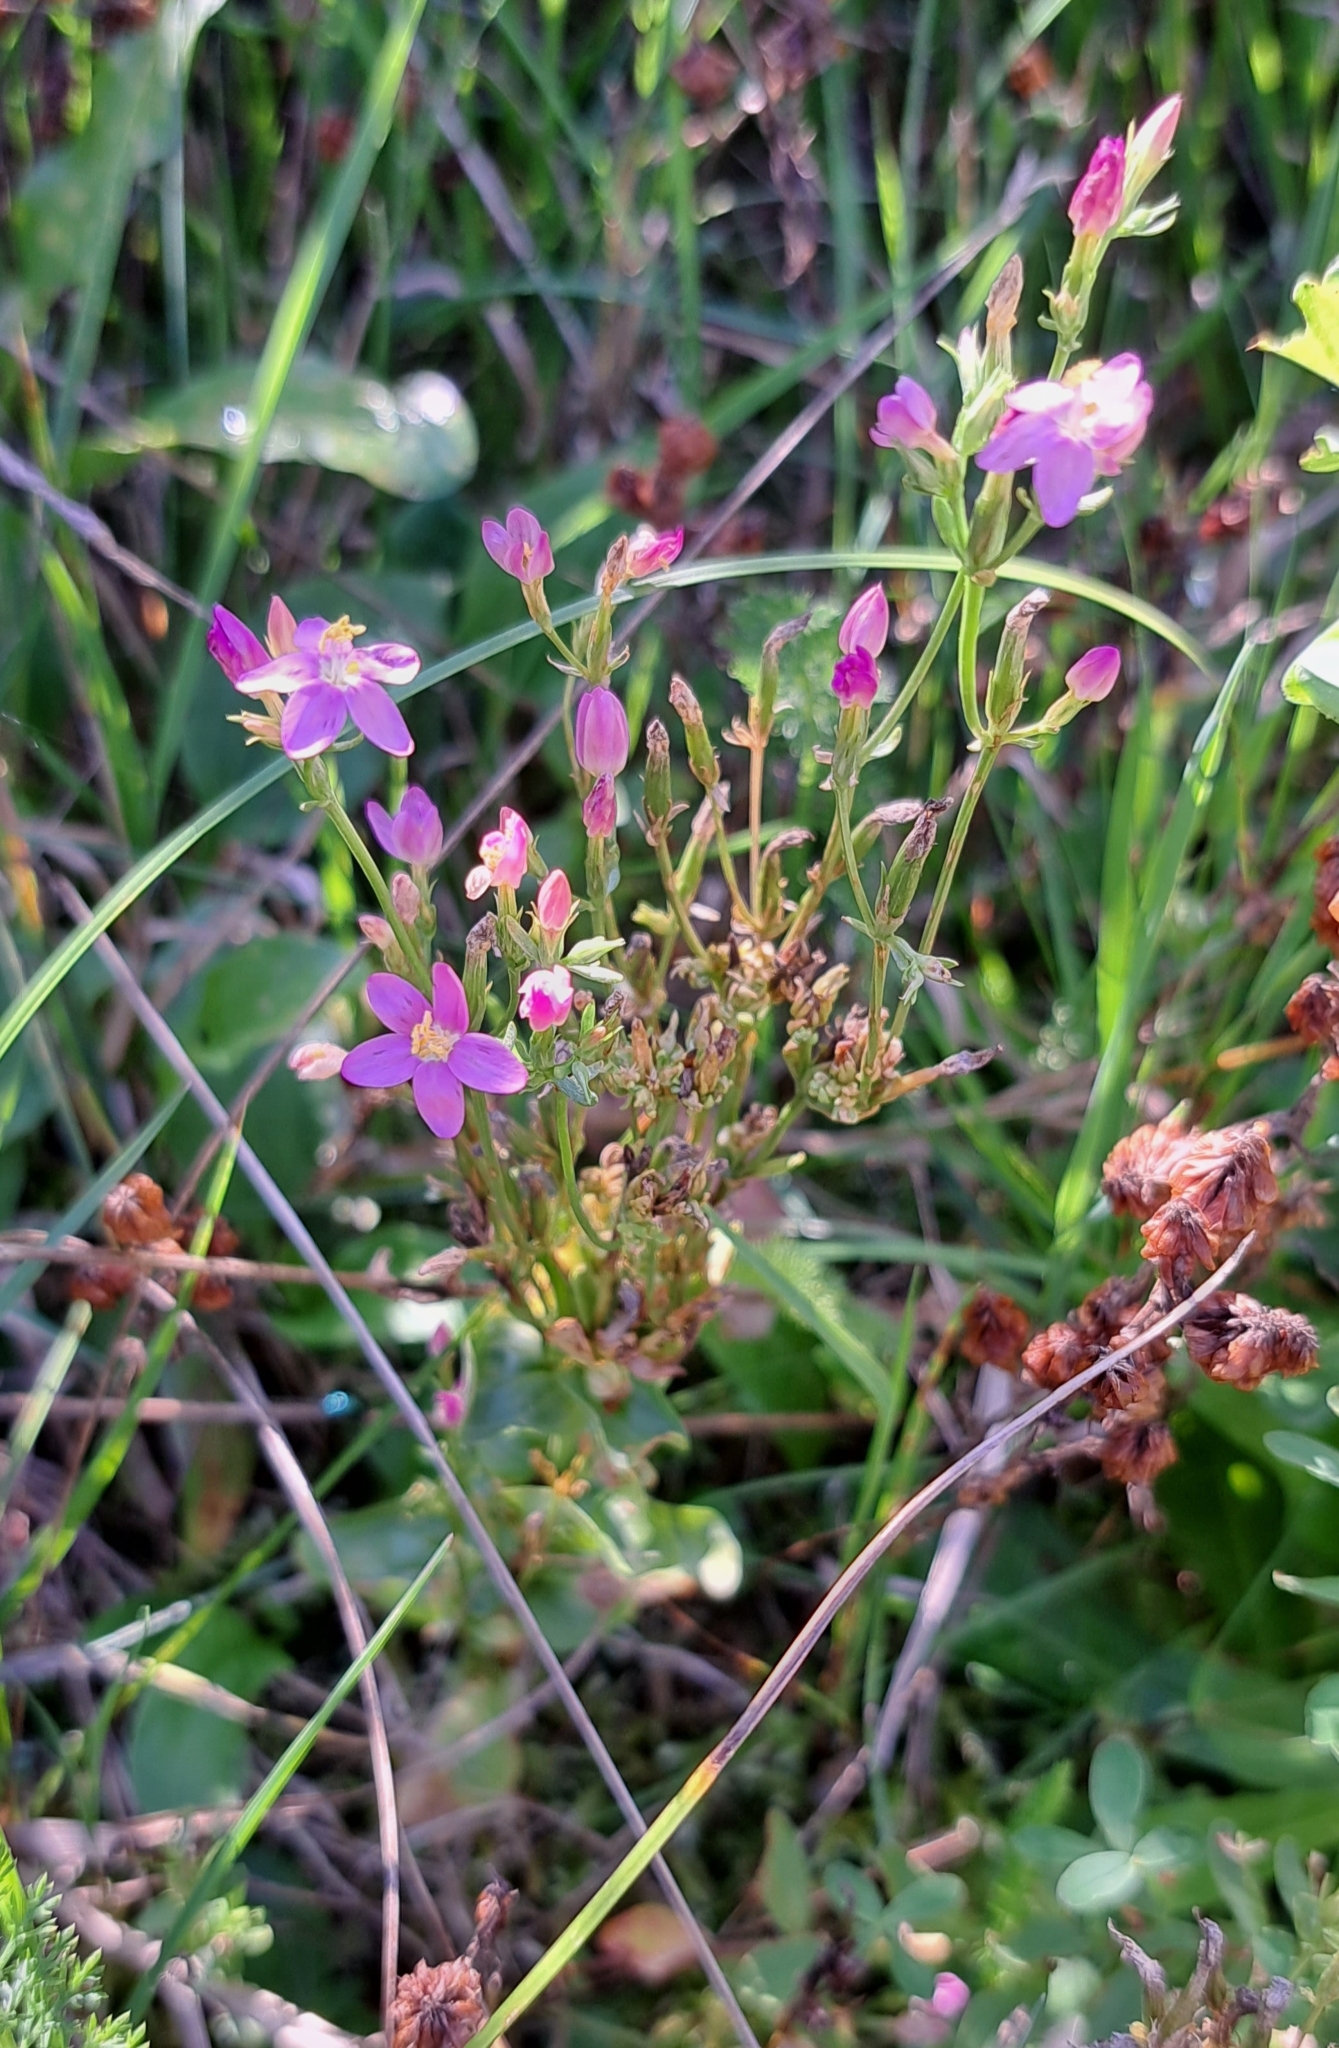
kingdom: Plantae
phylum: Tracheophyta
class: Magnoliopsida
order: Gentianales
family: Gentianaceae
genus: Centaurium
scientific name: Centaurium erythraea
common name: Common centaury
